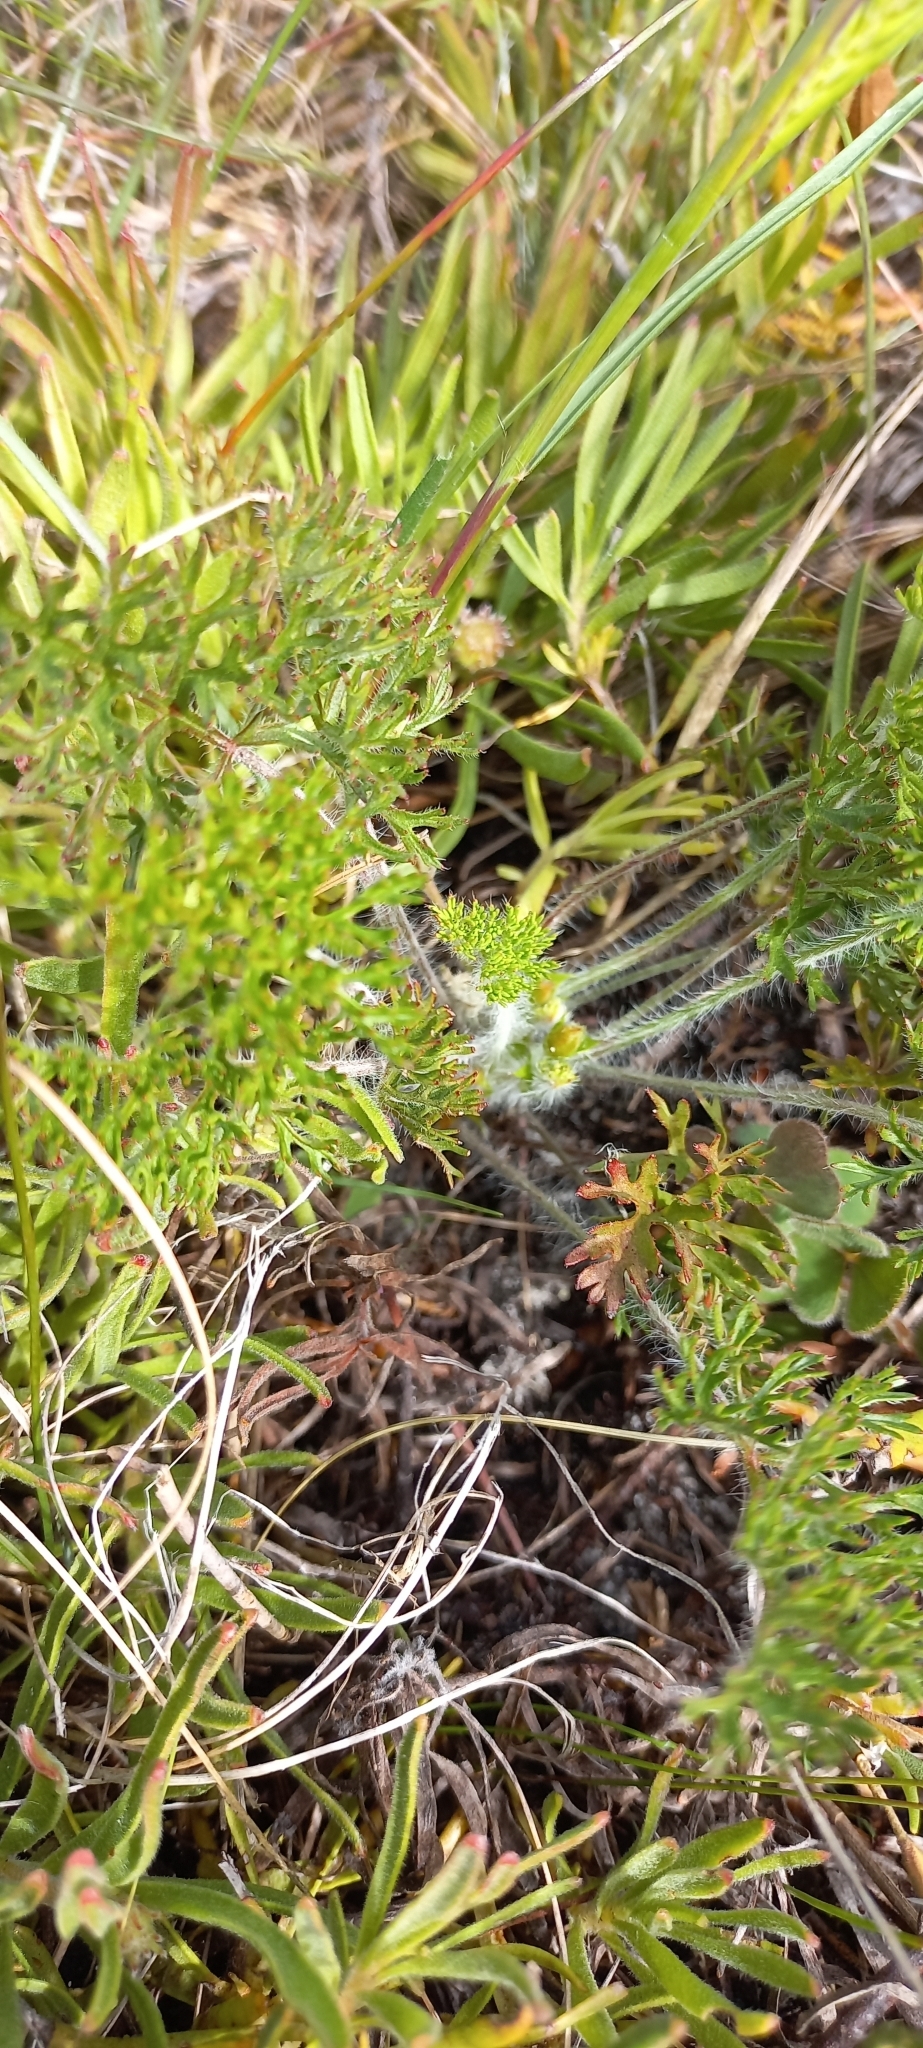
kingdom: Plantae
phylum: Tracheophyta
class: Magnoliopsida
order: Geraniales
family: Geraniaceae
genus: Pelargonium
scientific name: Pelargonium triste
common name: Night-scent pelargonium
